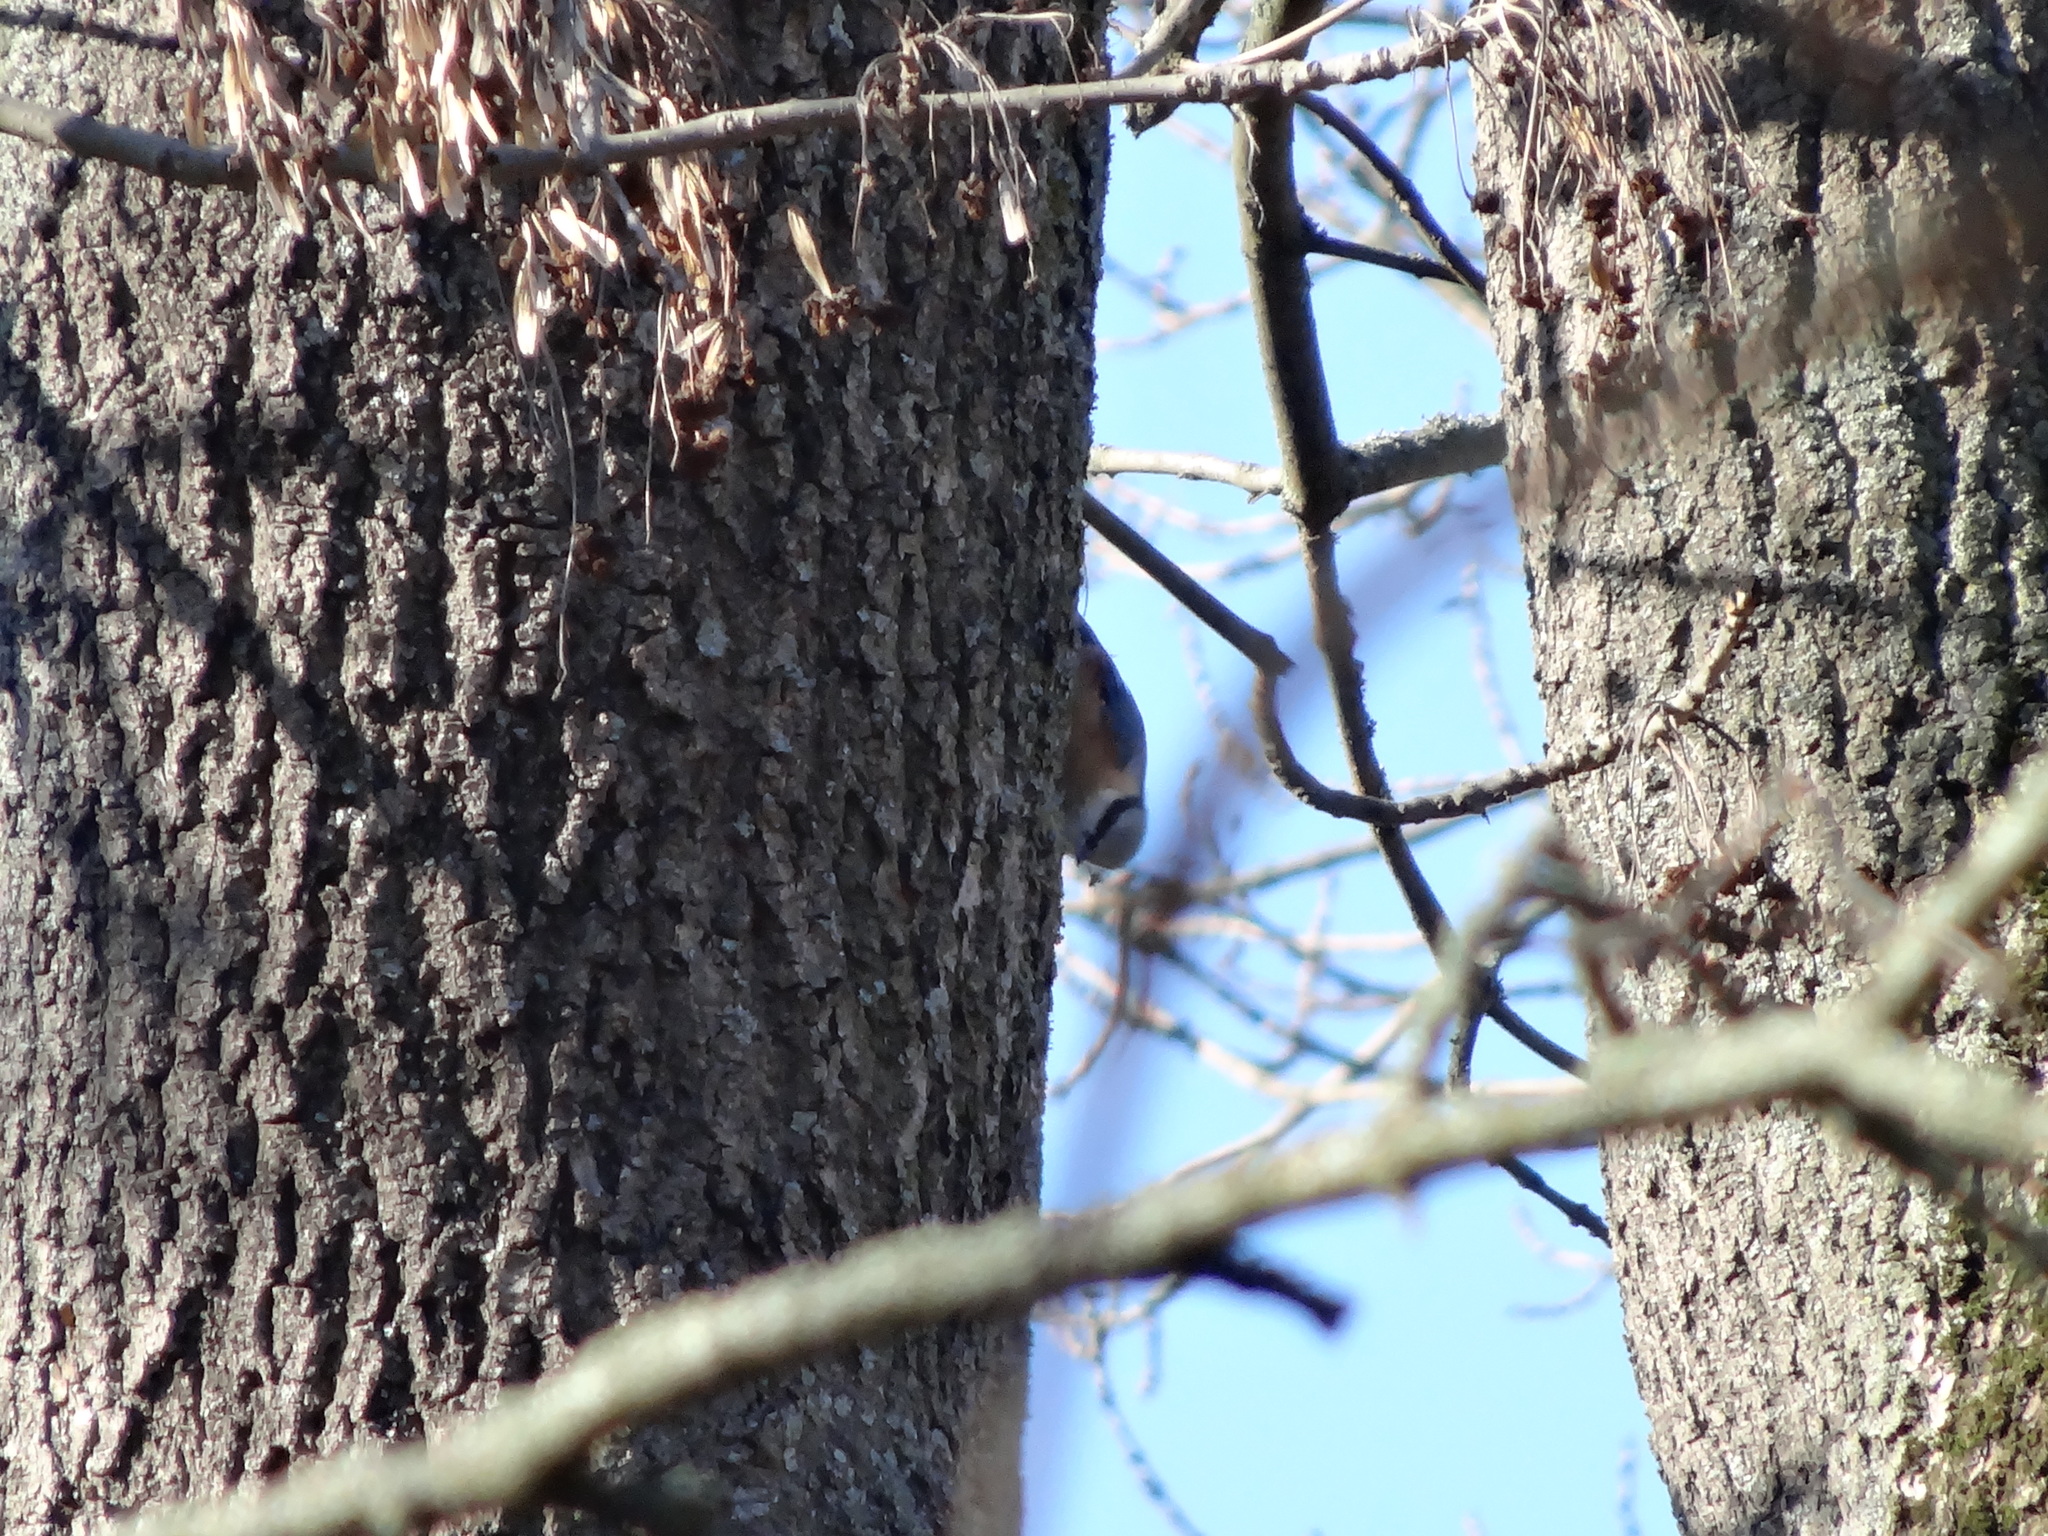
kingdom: Animalia
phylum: Chordata
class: Aves
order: Passeriformes
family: Sittidae
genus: Sitta
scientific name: Sitta europaea
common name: Eurasian nuthatch
